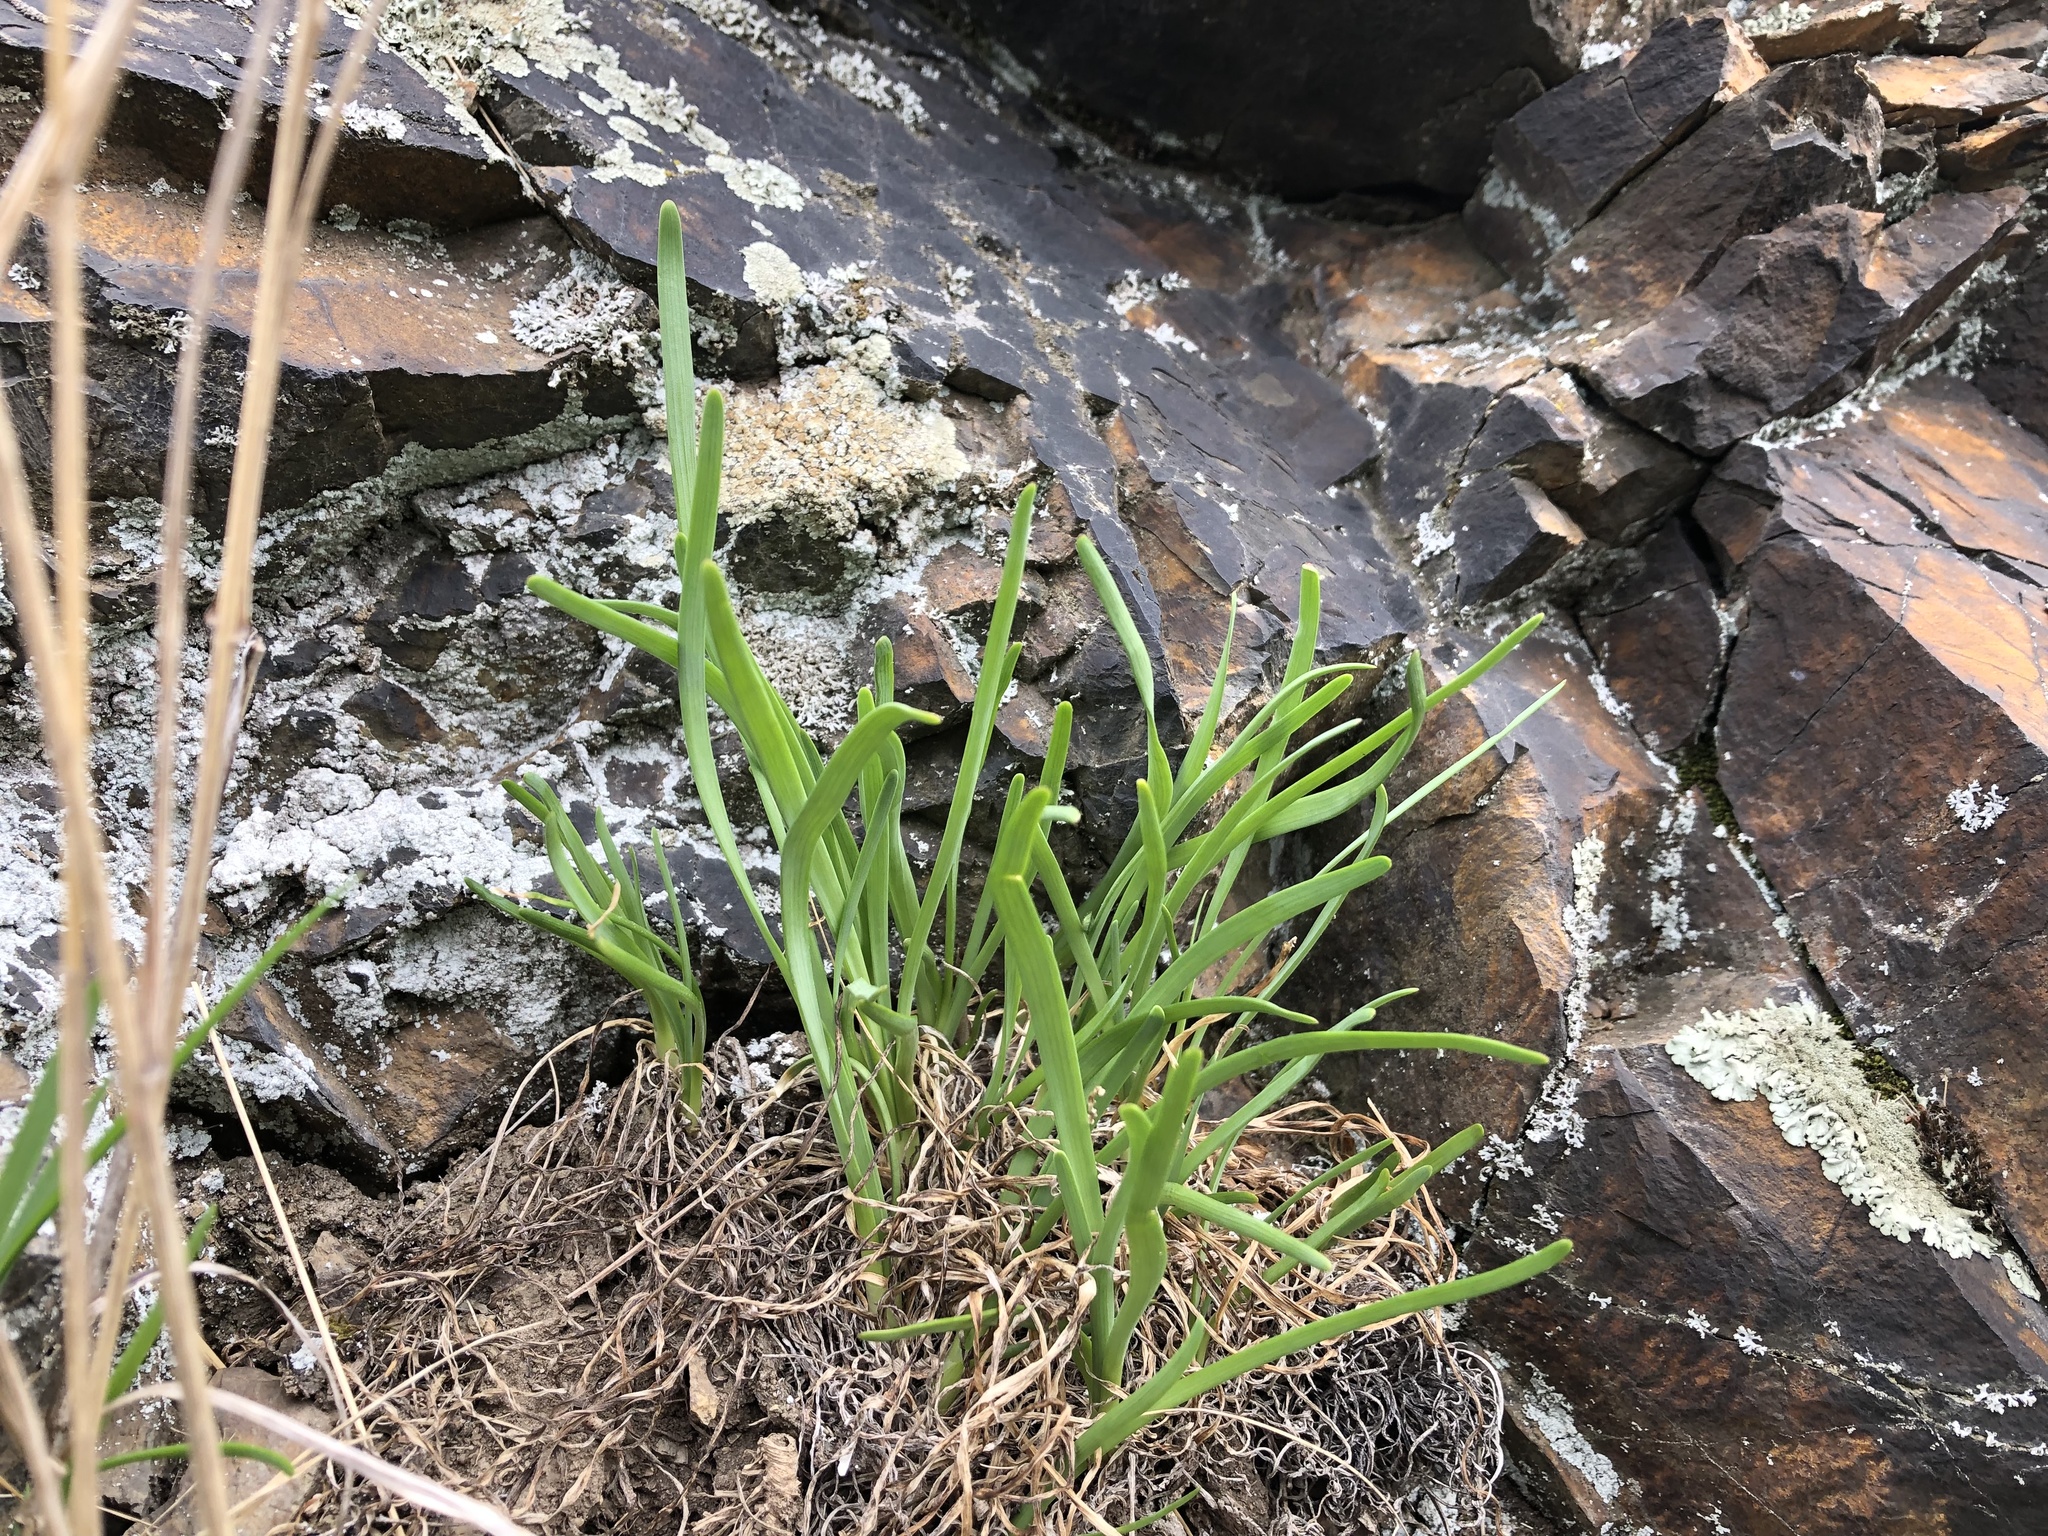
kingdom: Plantae
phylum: Tracheophyta
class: Liliopsida
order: Asparagales
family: Amaryllidaceae
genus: Allium
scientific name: Allium lusitanicum
